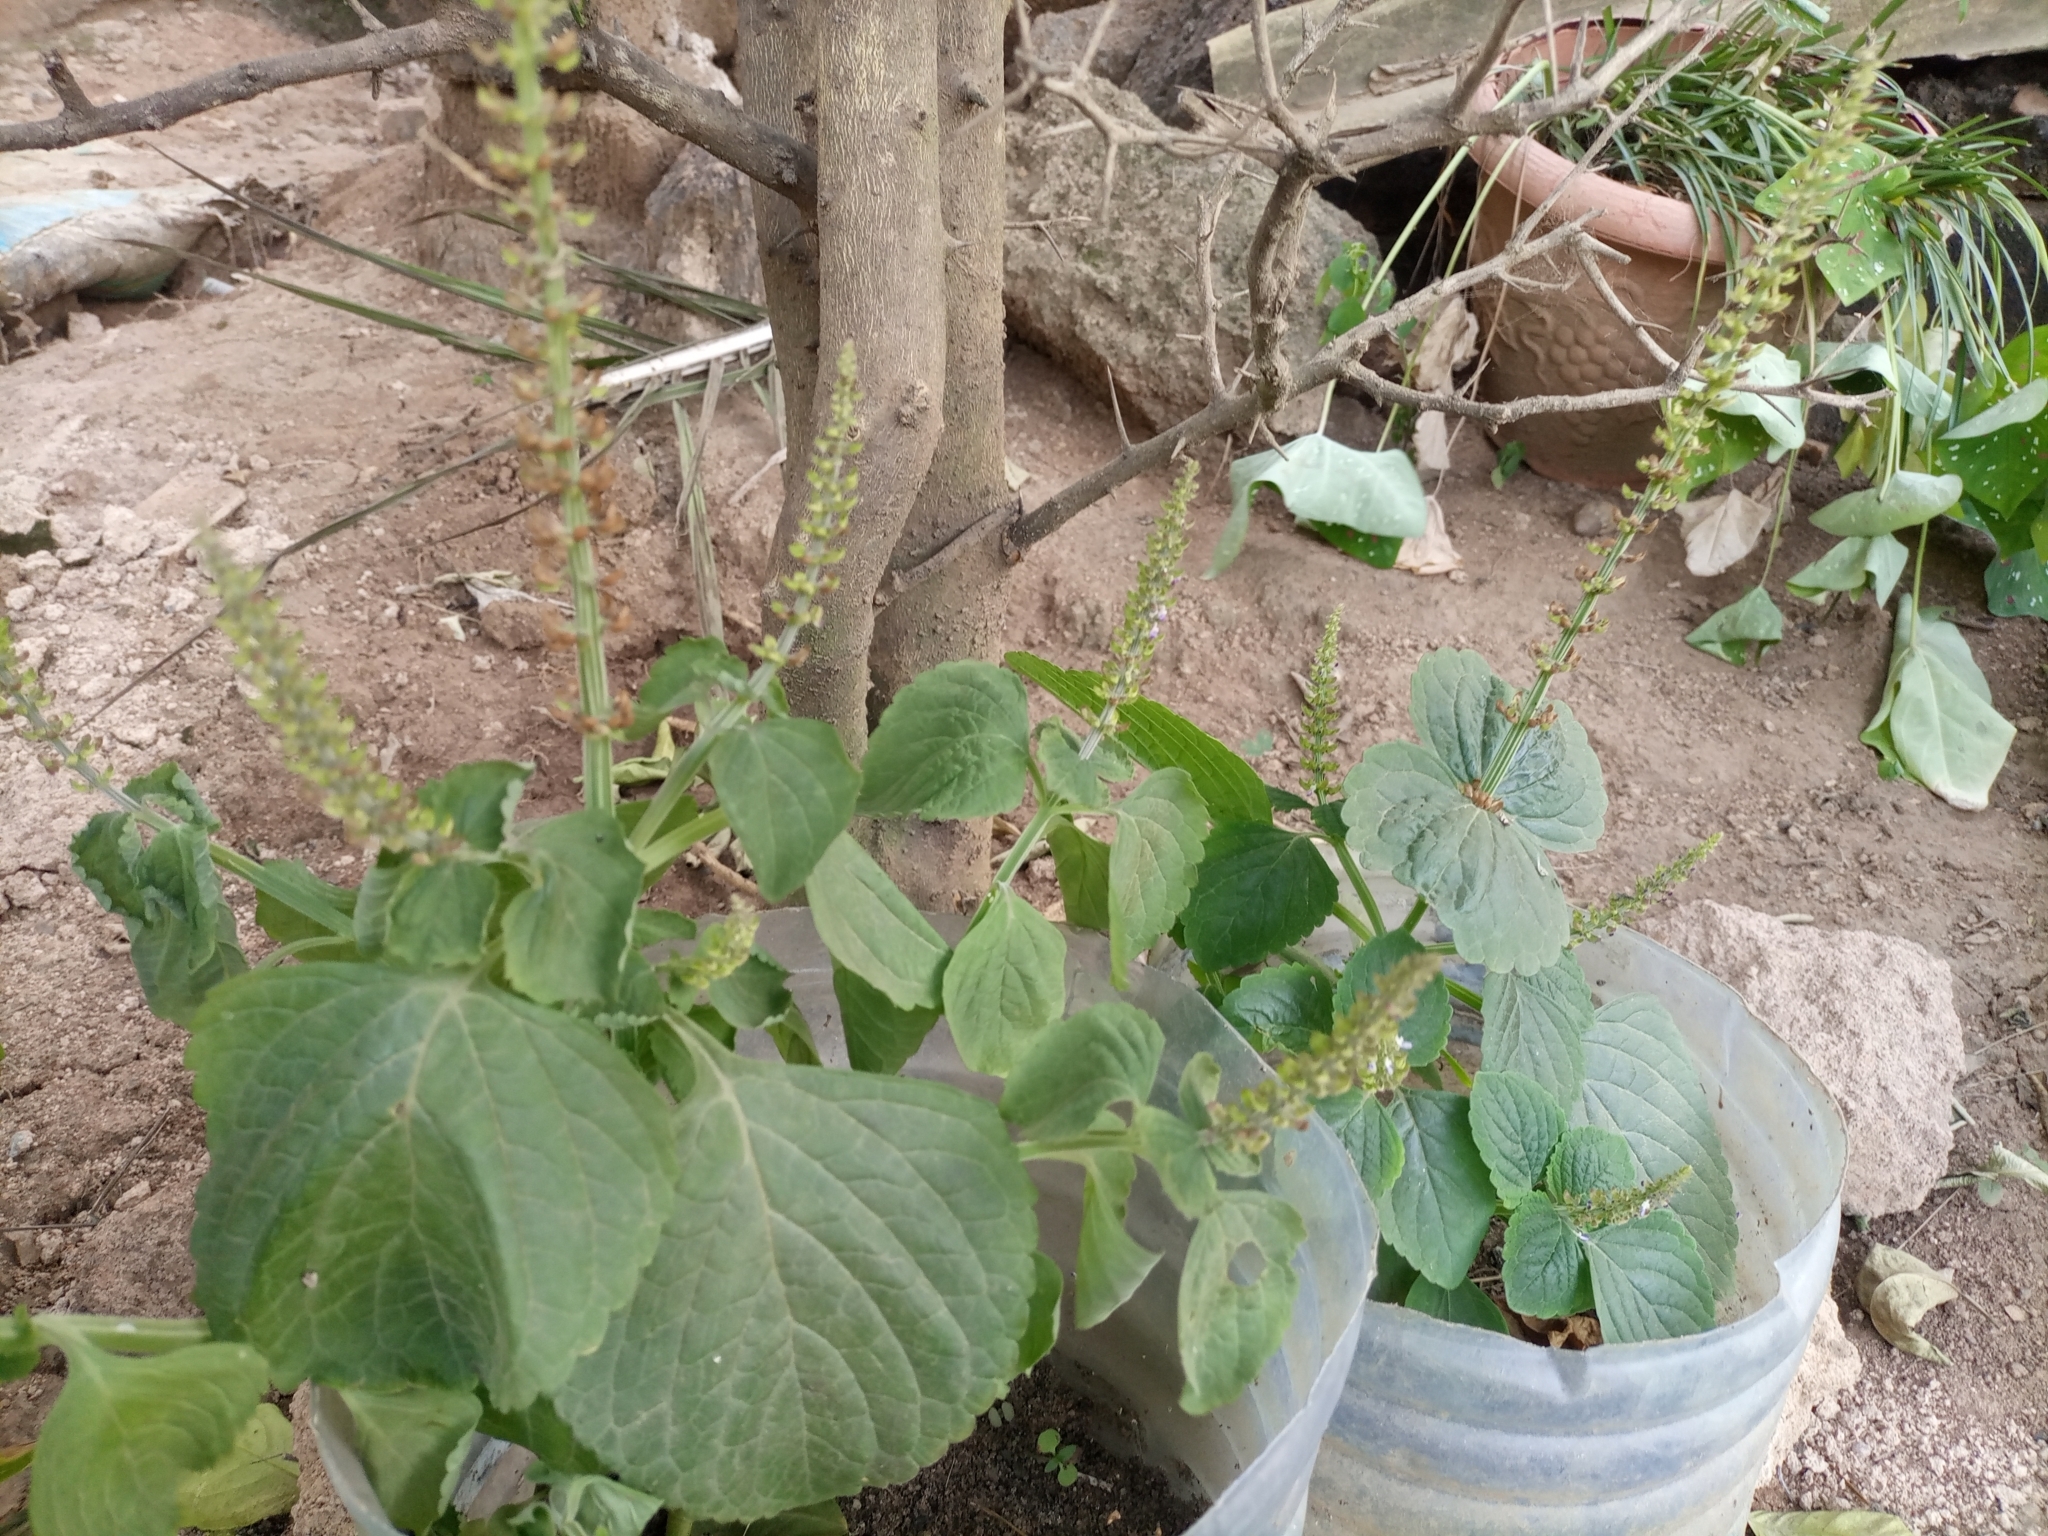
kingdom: Plantae
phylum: Tracheophyta
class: Magnoliopsida
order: Lamiales
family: Lamiaceae
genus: Coleus
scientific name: Coleus monostachyus
